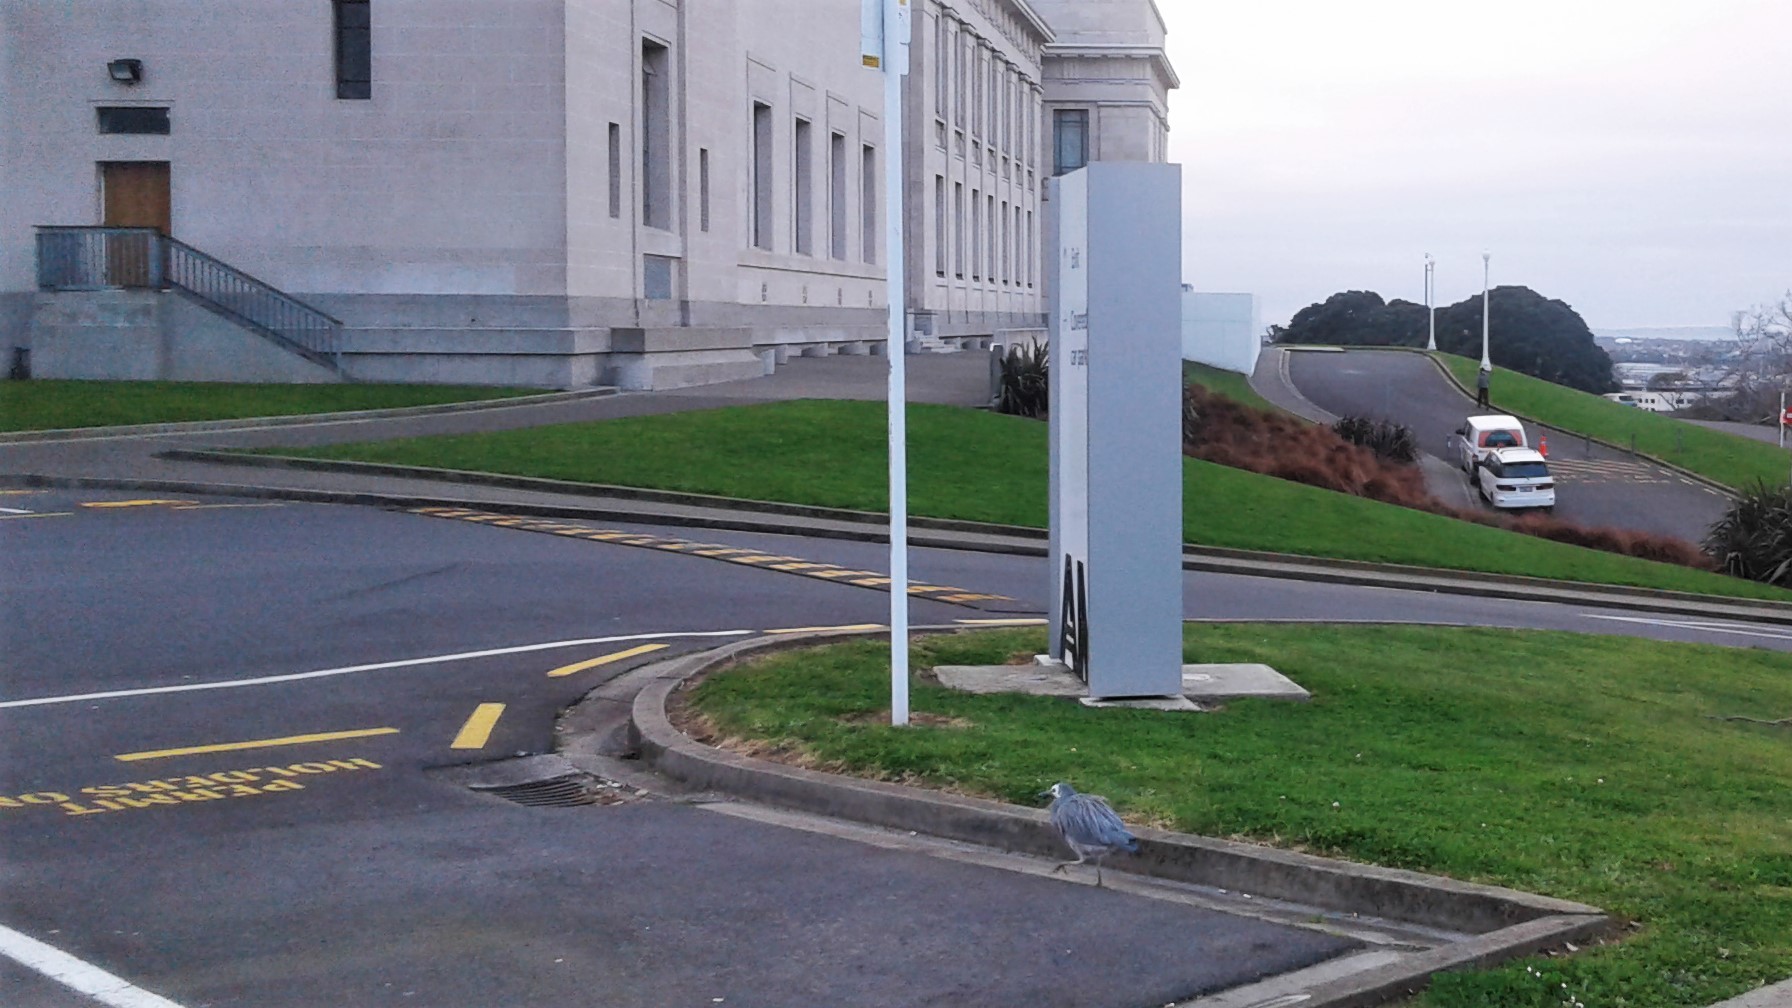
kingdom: Animalia
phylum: Chordata
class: Aves
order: Pelecaniformes
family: Ardeidae
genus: Egretta
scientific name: Egretta novaehollandiae
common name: White-faced heron
